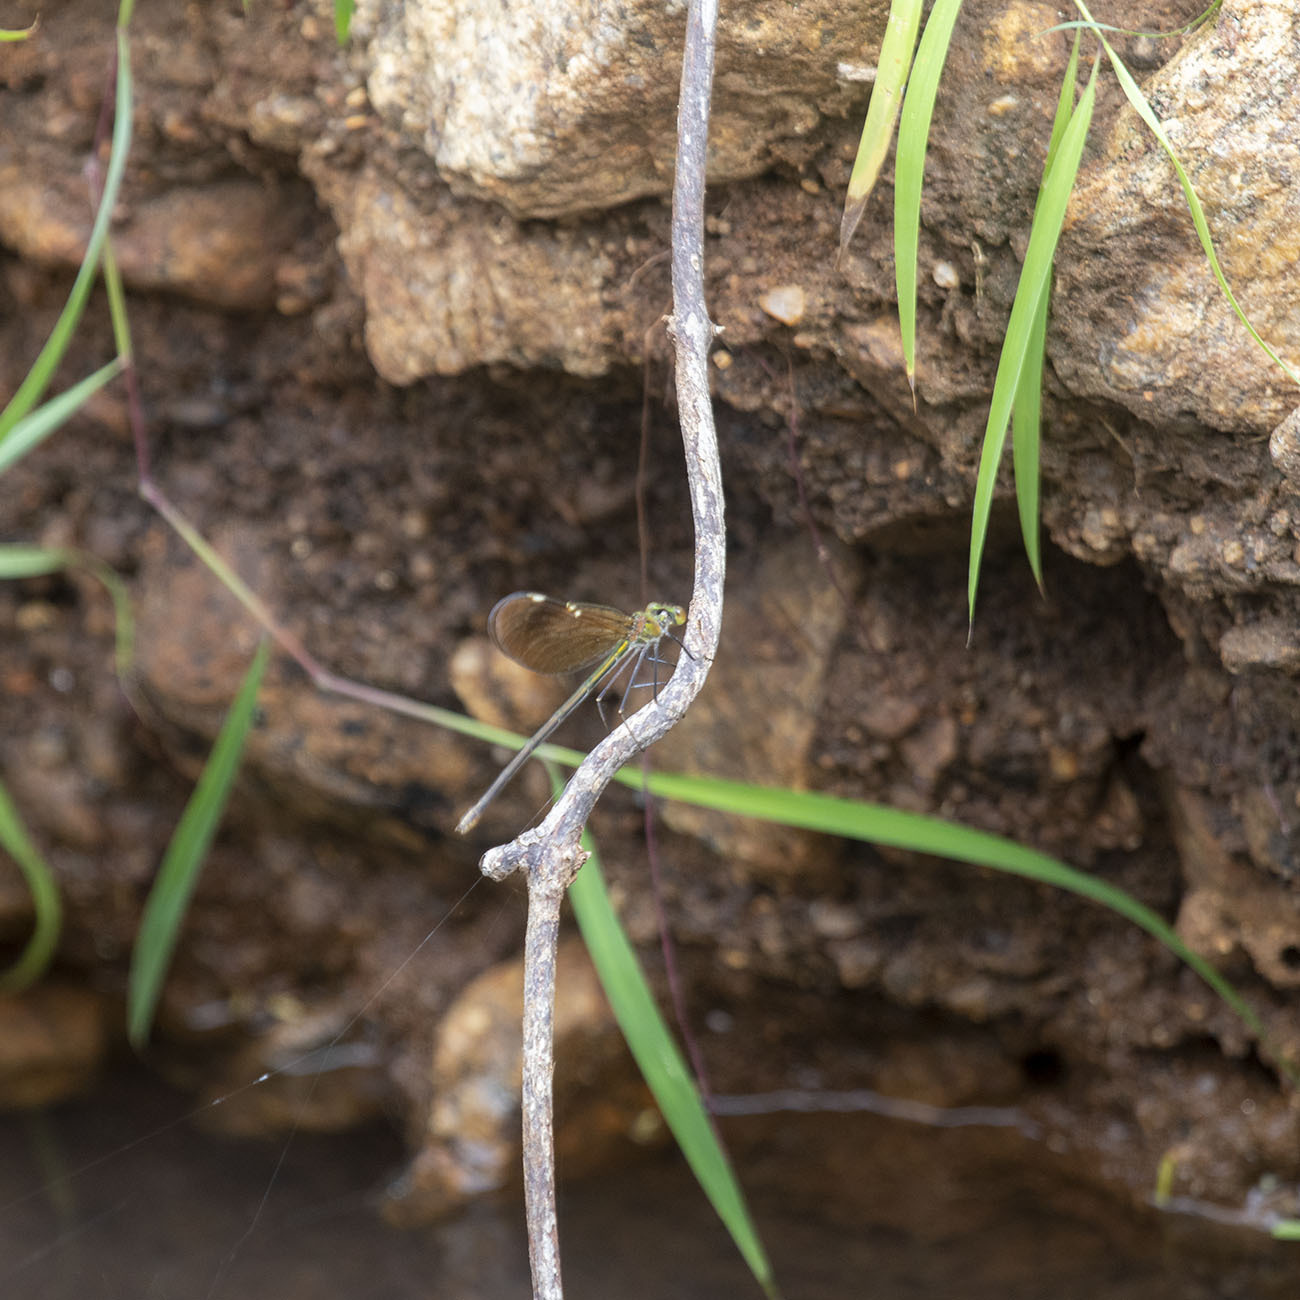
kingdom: Animalia
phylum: Arthropoda
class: Insecta
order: Odonata
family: Calopterygidae
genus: Neurobasis
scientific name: Neurobasis chinensis
